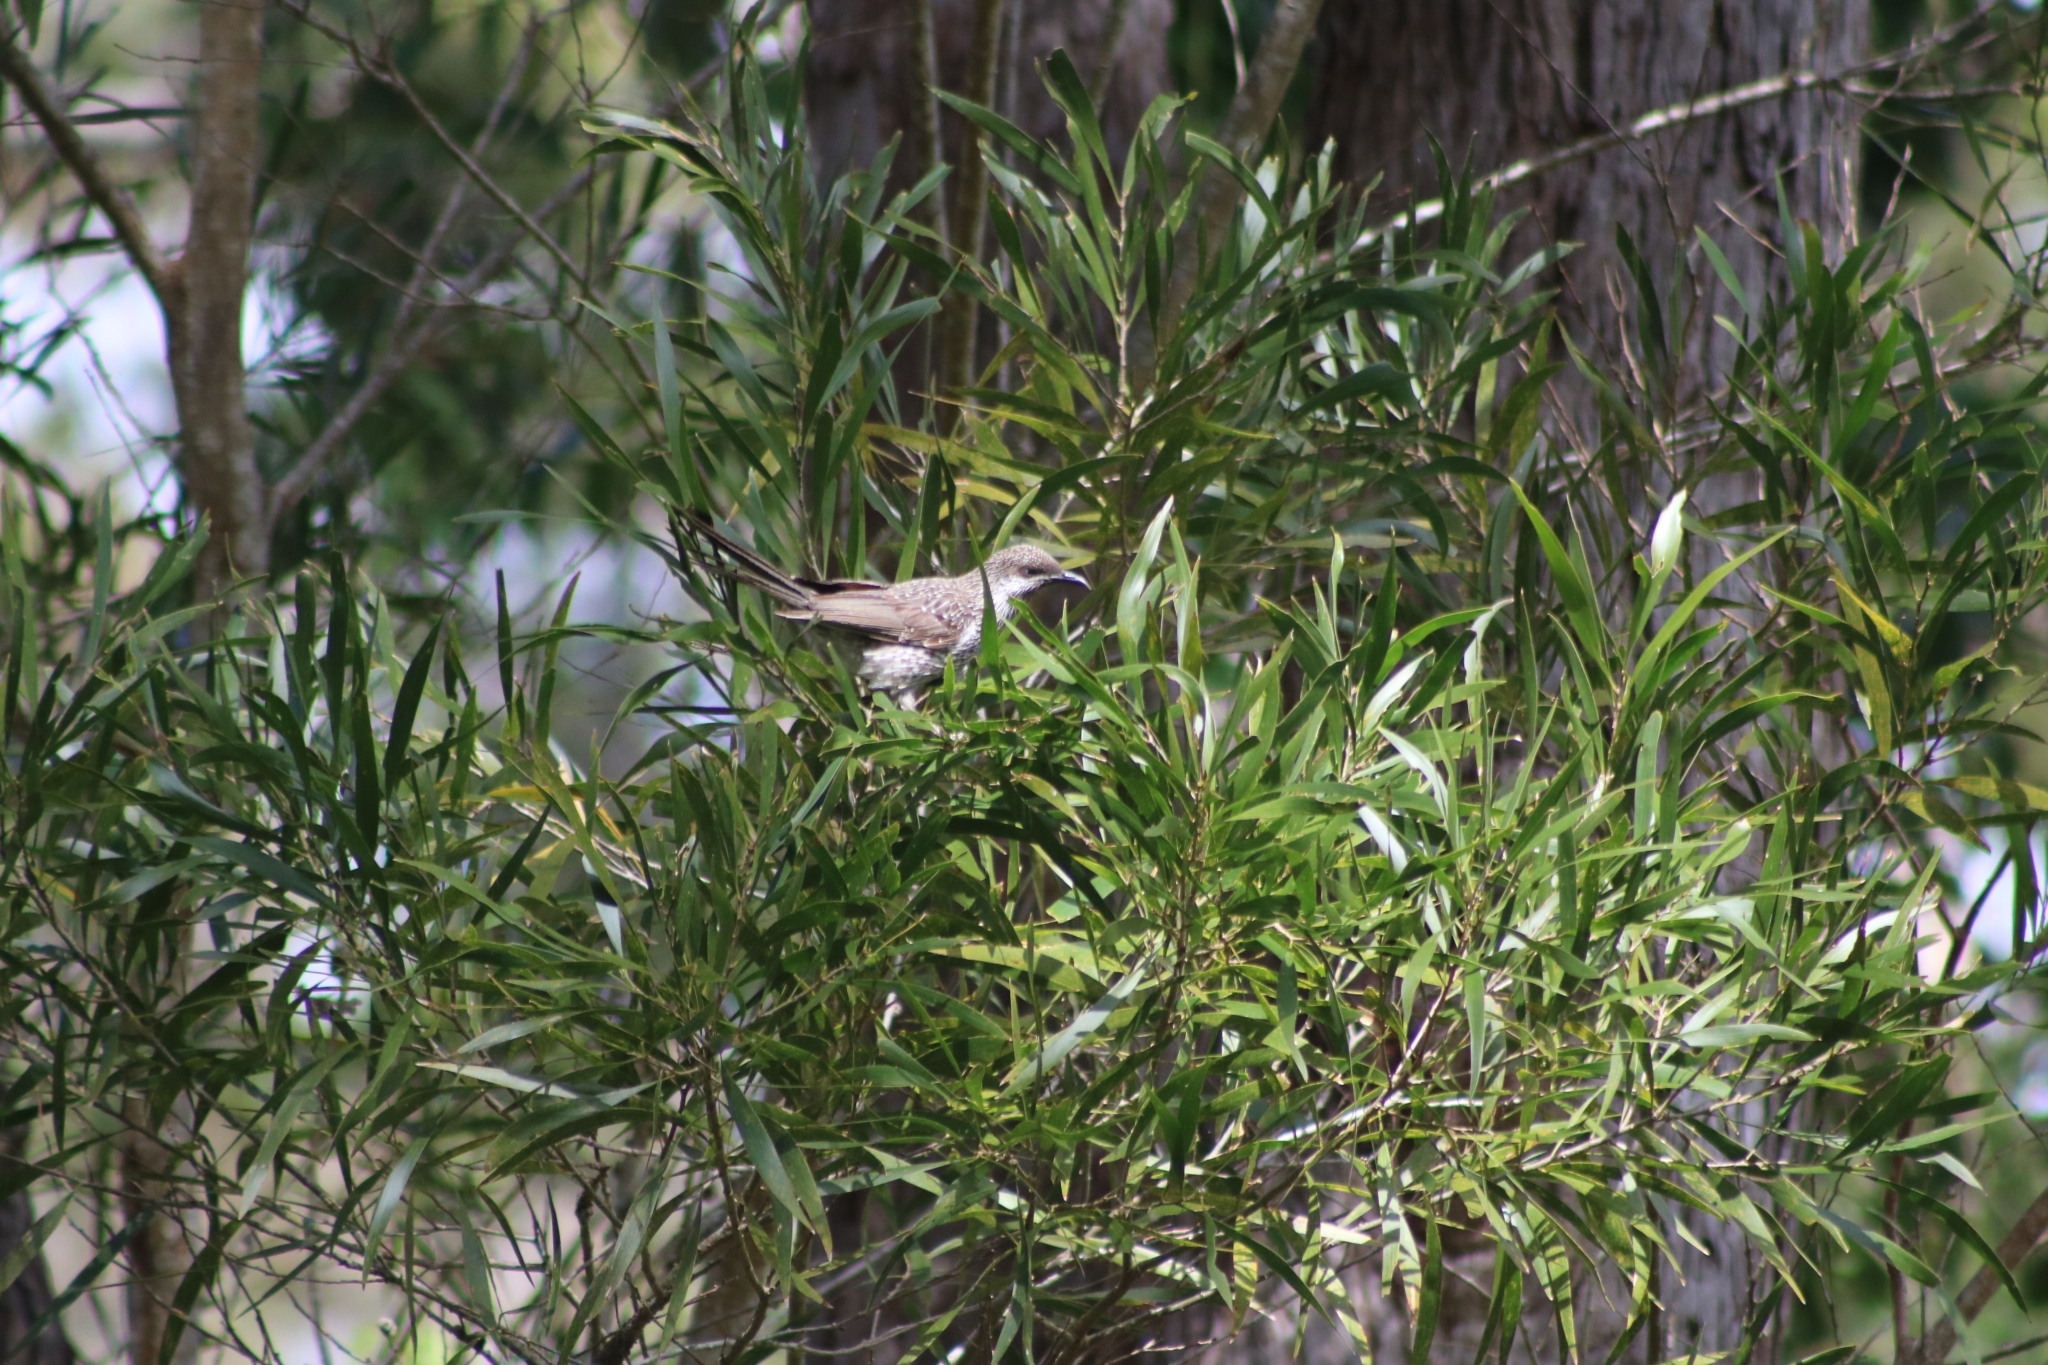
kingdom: Animalia
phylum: Chordata
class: Aves
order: Passeriformes
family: Meliphagidae
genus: Anthochaera
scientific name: Anthochaera chrysoptera
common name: Little wattlebird
